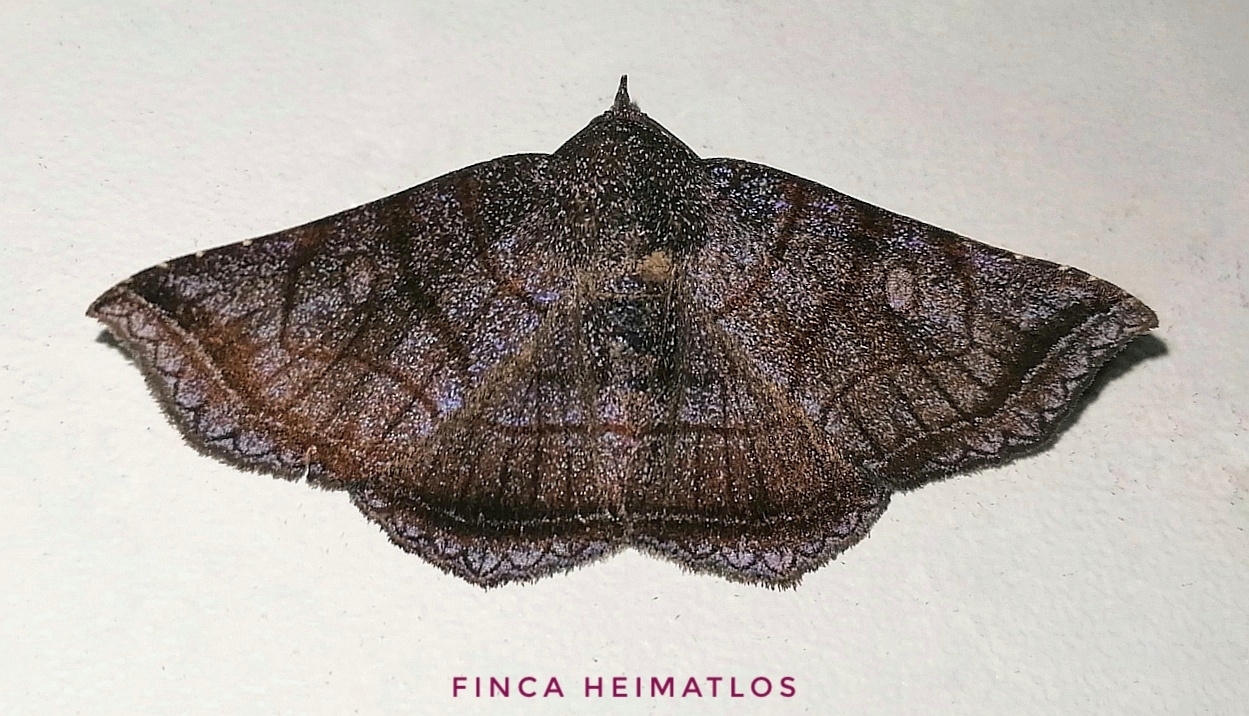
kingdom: Animalia
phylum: Arthropoda
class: Insecta
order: Lepidoptera
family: Erebidae
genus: Lesmone
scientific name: Lesmone inopia
